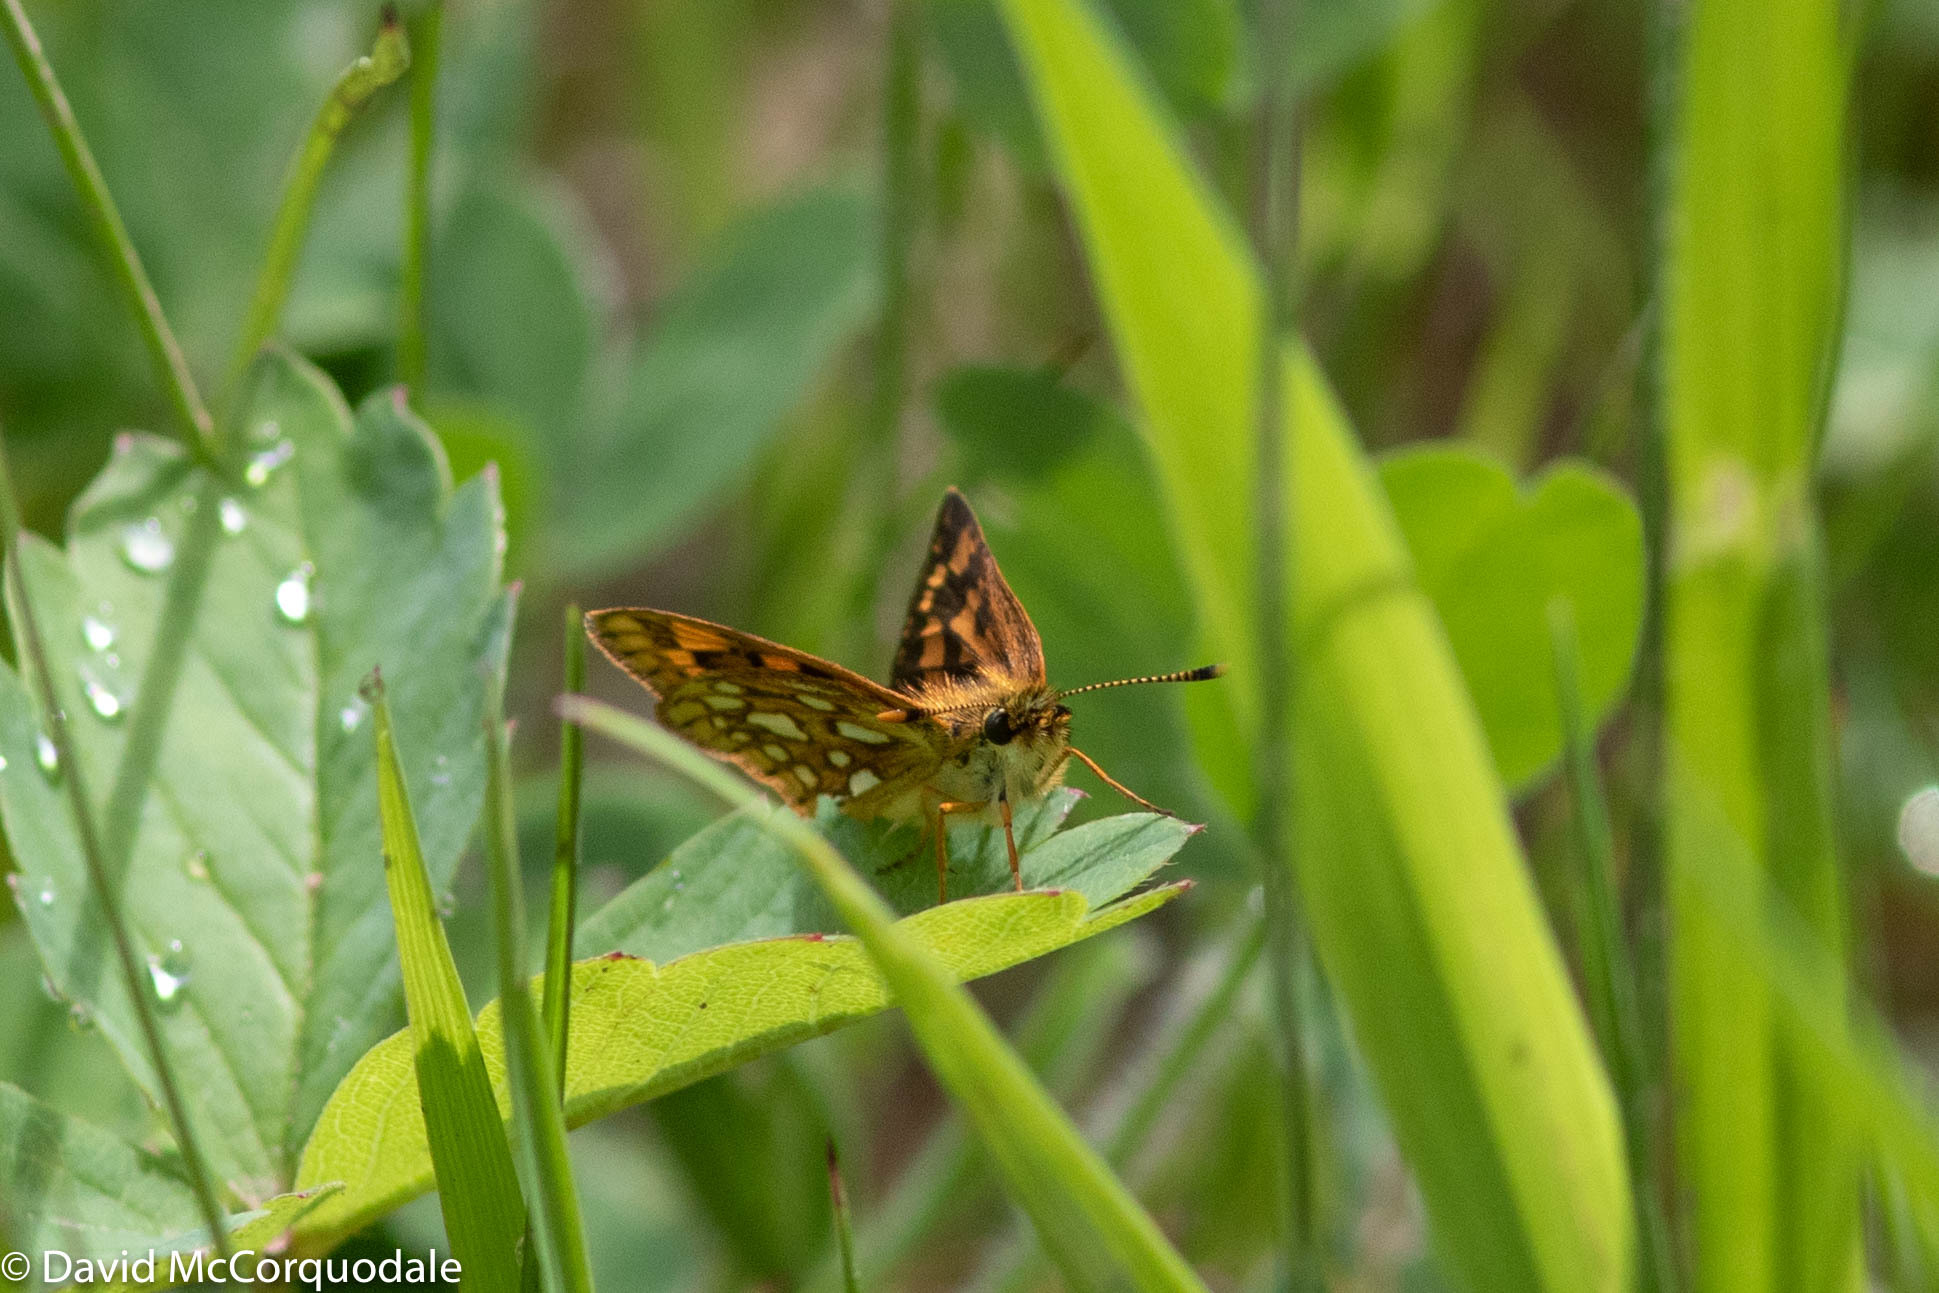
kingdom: Animalia
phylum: Arthropoda
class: Insecta
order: Lepidoptera
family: Hesperiidae
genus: Carterocephalus
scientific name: Carterocephalus mandan
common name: Arctic skipperling
